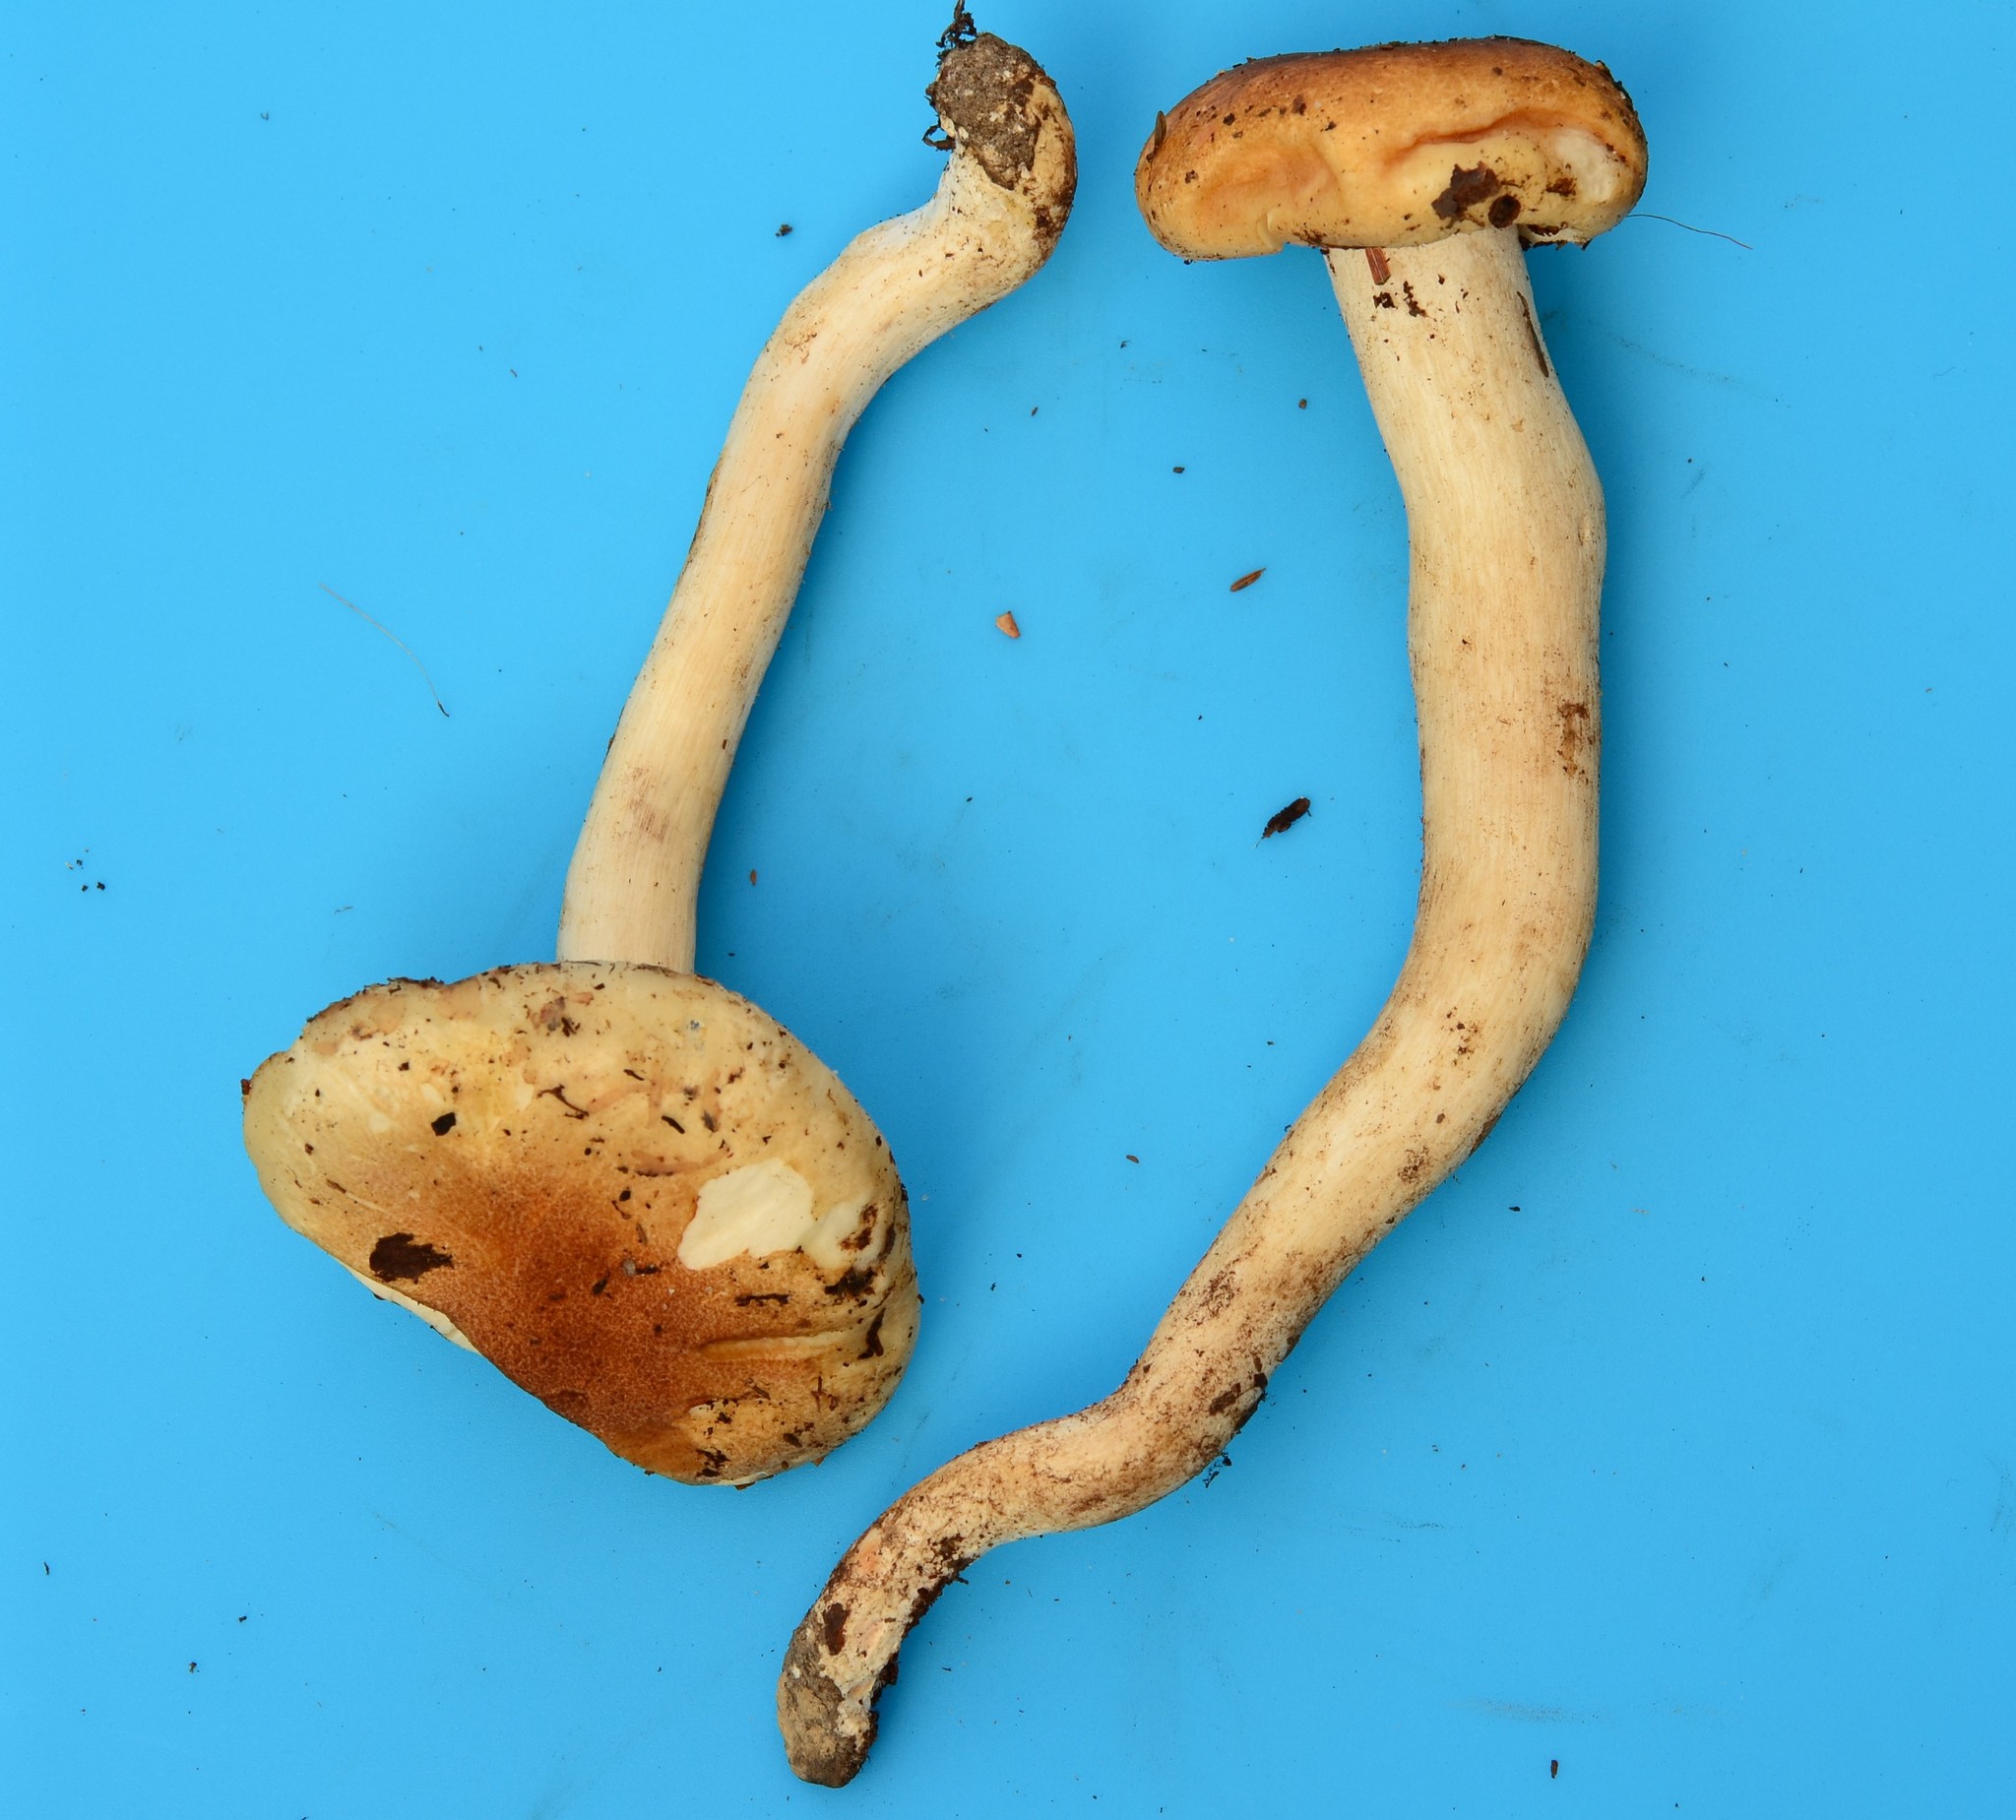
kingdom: Fungi
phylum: Basidiomycota
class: Agaricomycetes
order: Agaricales
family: Hygrophoraceae
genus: Hygrophorus
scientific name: Hygrophorus tennesseensis
